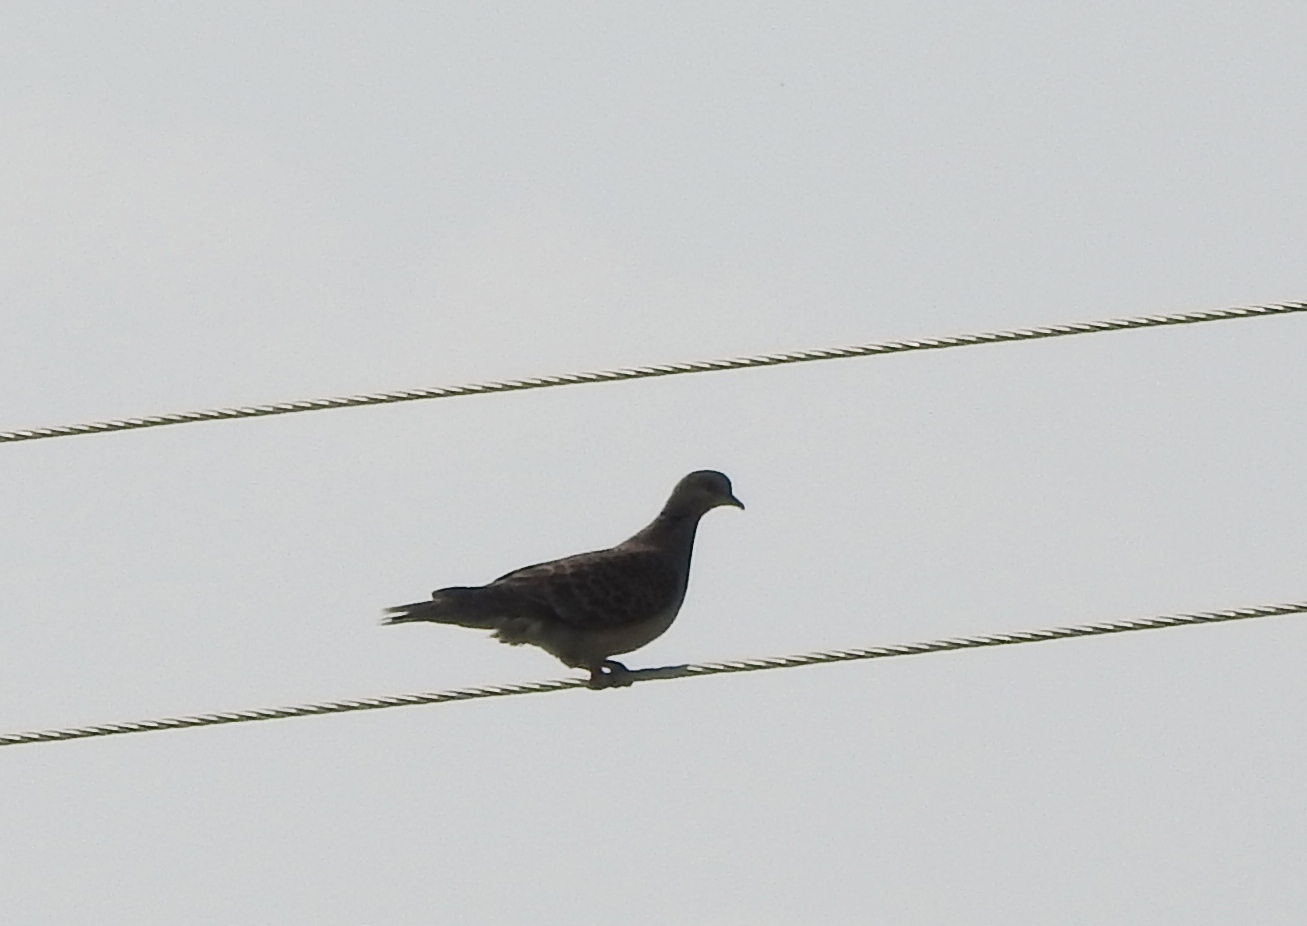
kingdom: Animalia
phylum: Chordata
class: Aves
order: Columbiformes
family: Columbidae
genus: Streptopelia
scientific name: Streptopelia orientalis
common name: Oriental turtle dove
